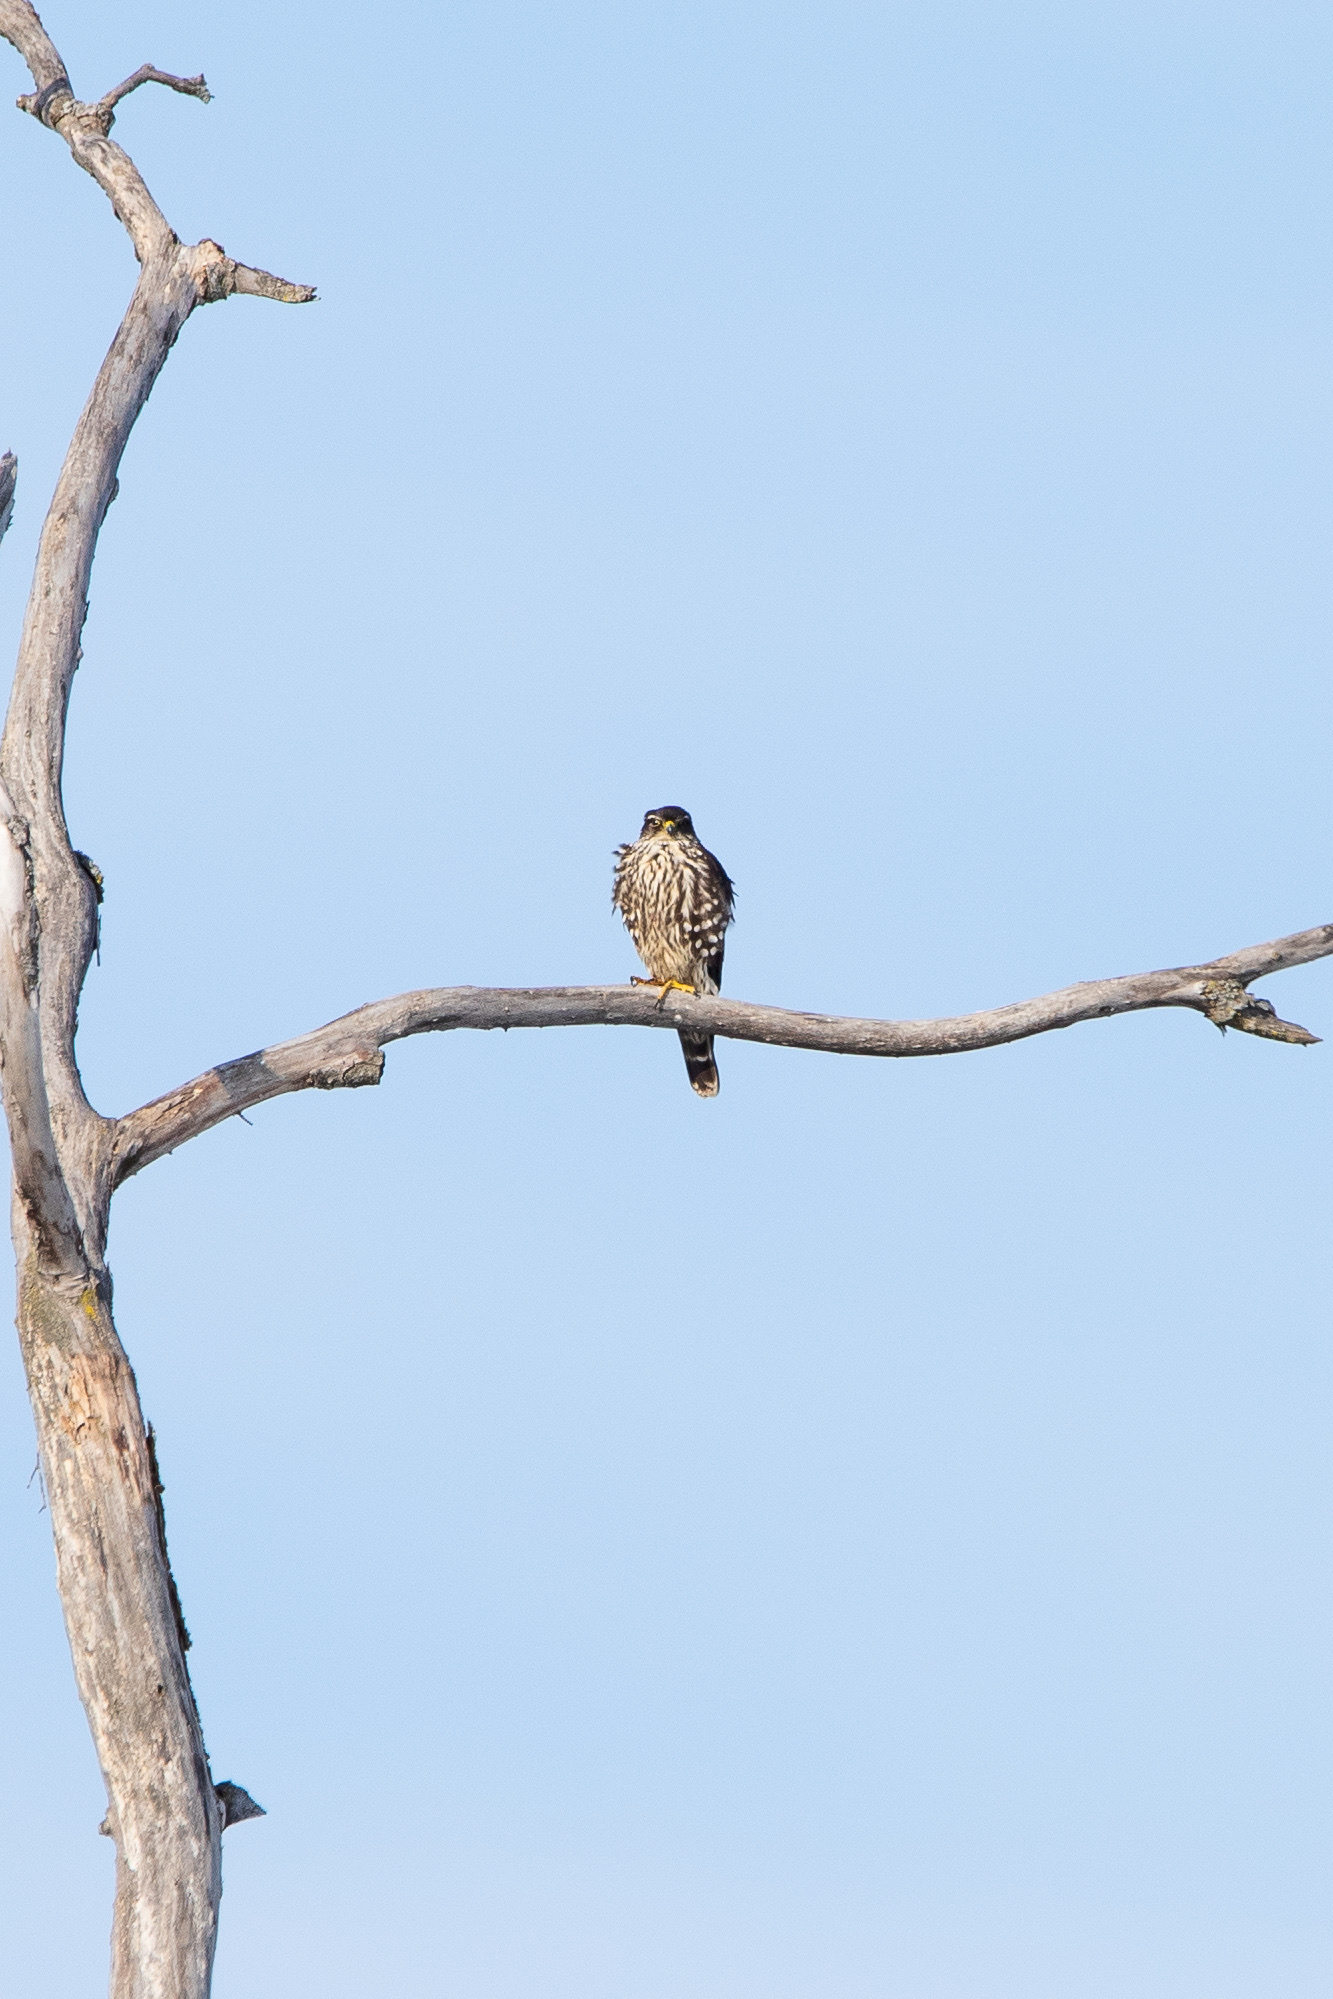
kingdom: Animalia
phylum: Chordata
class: Aves
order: Falconiformes
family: Falconidae
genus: Falco
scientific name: Falco columbarius
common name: Merlin
